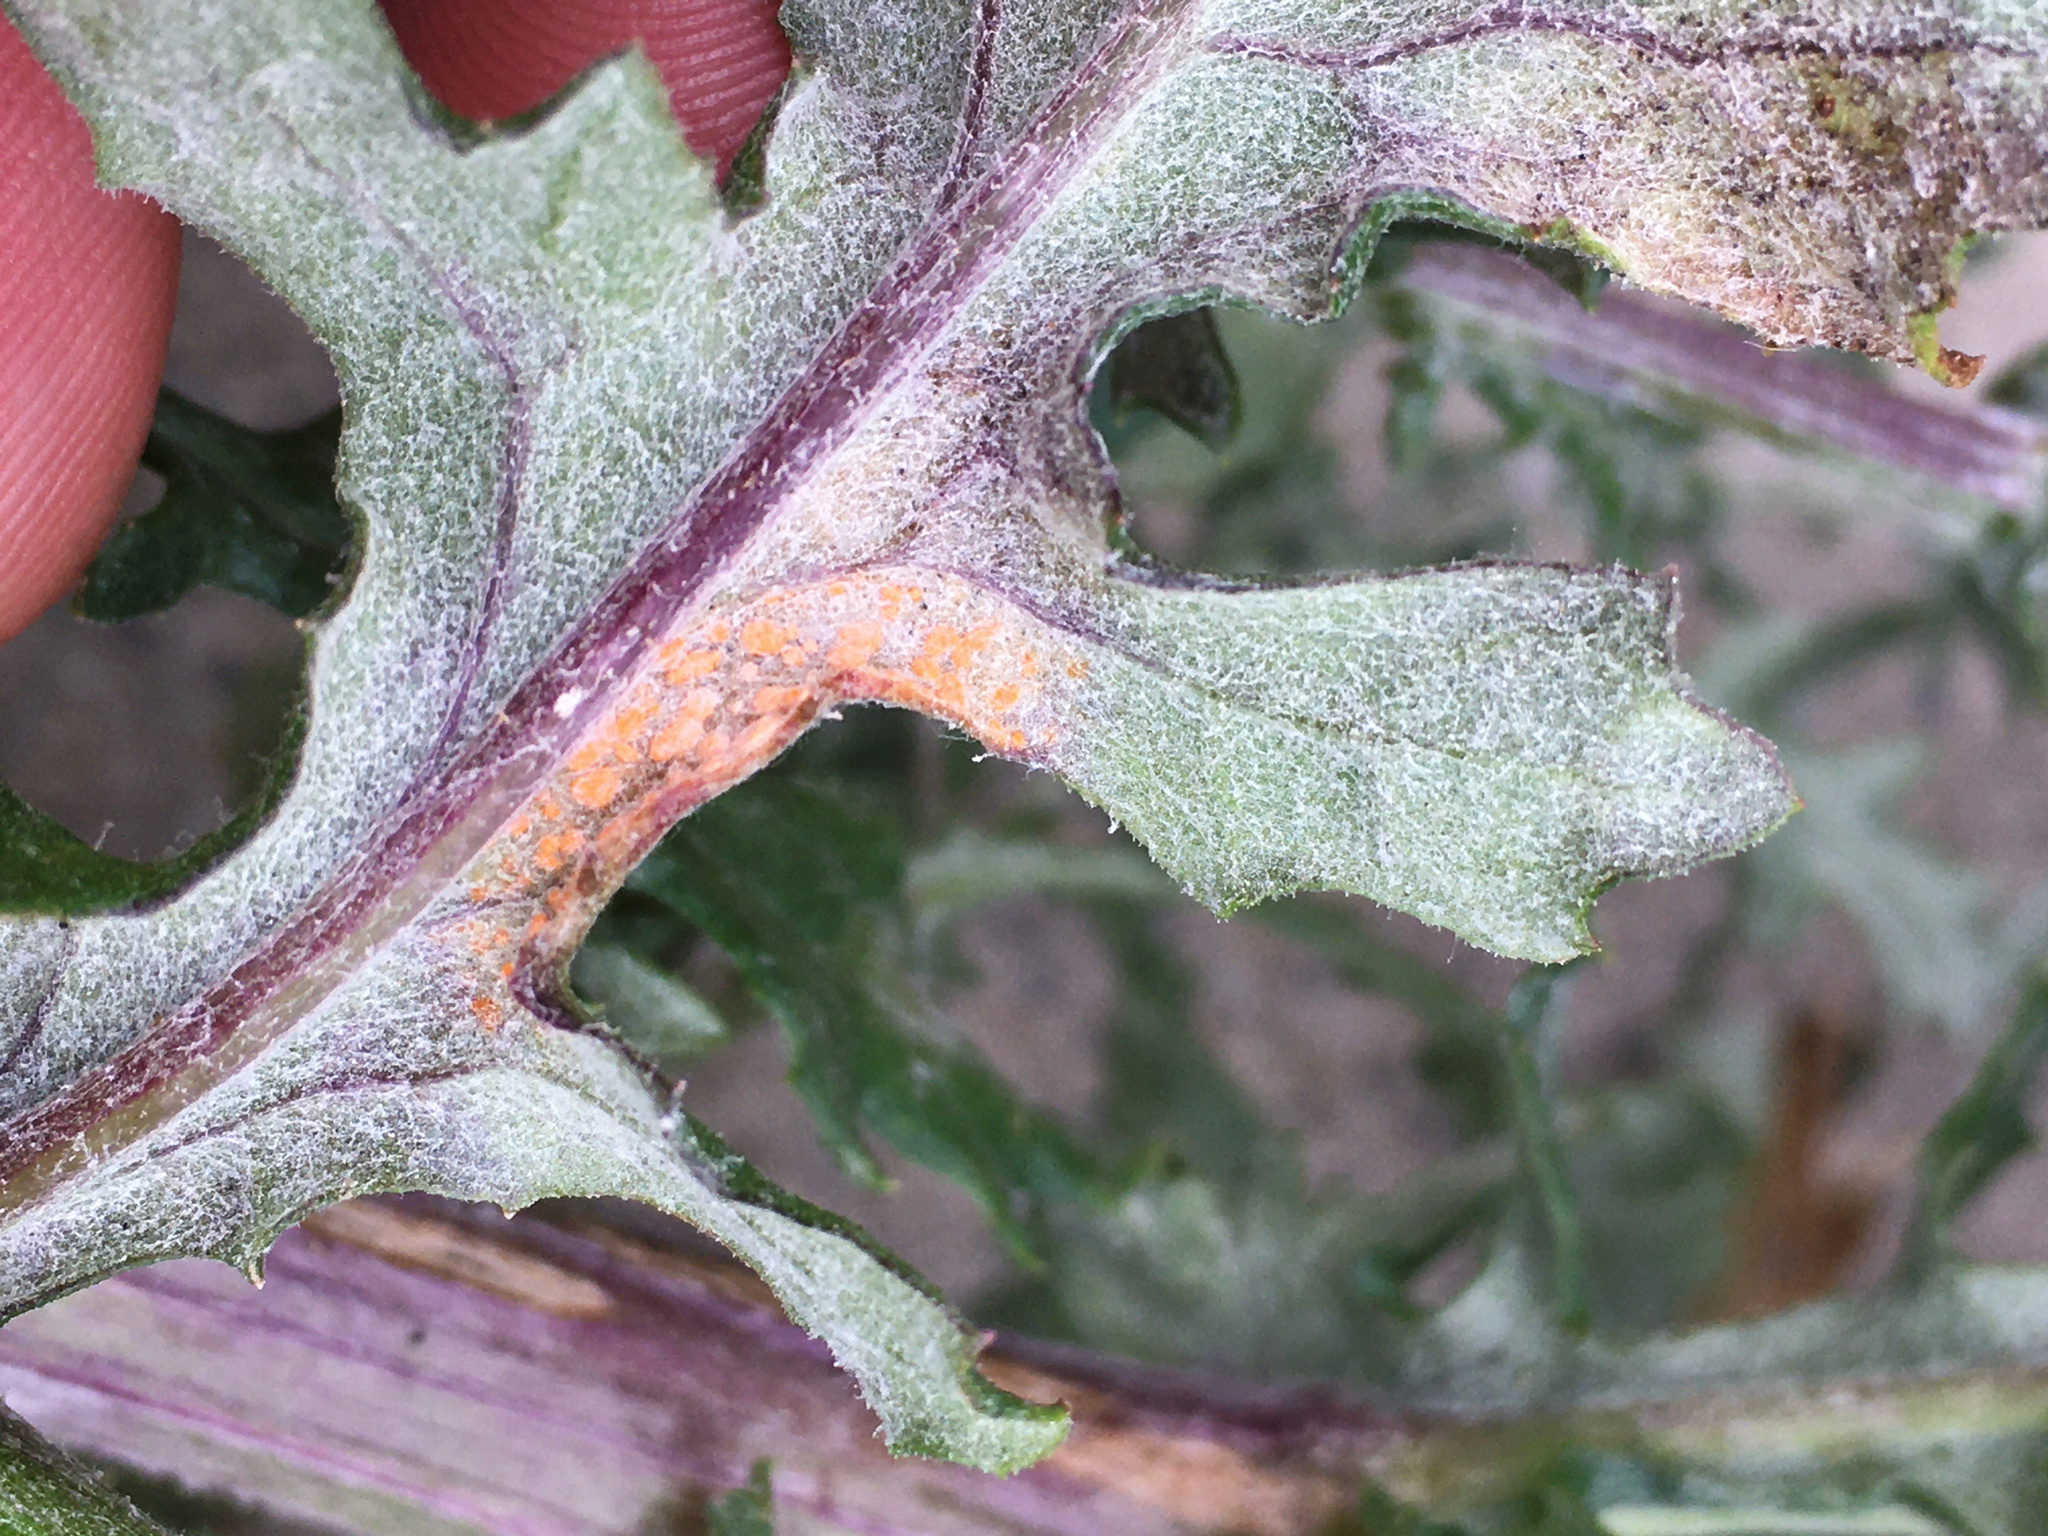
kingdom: Fungi
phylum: Basidiomycota
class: Pucciniomycetes
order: Pucciniales
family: Coleosporiaceae
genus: Coleosporium
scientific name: Coleosporium tussilaginis
